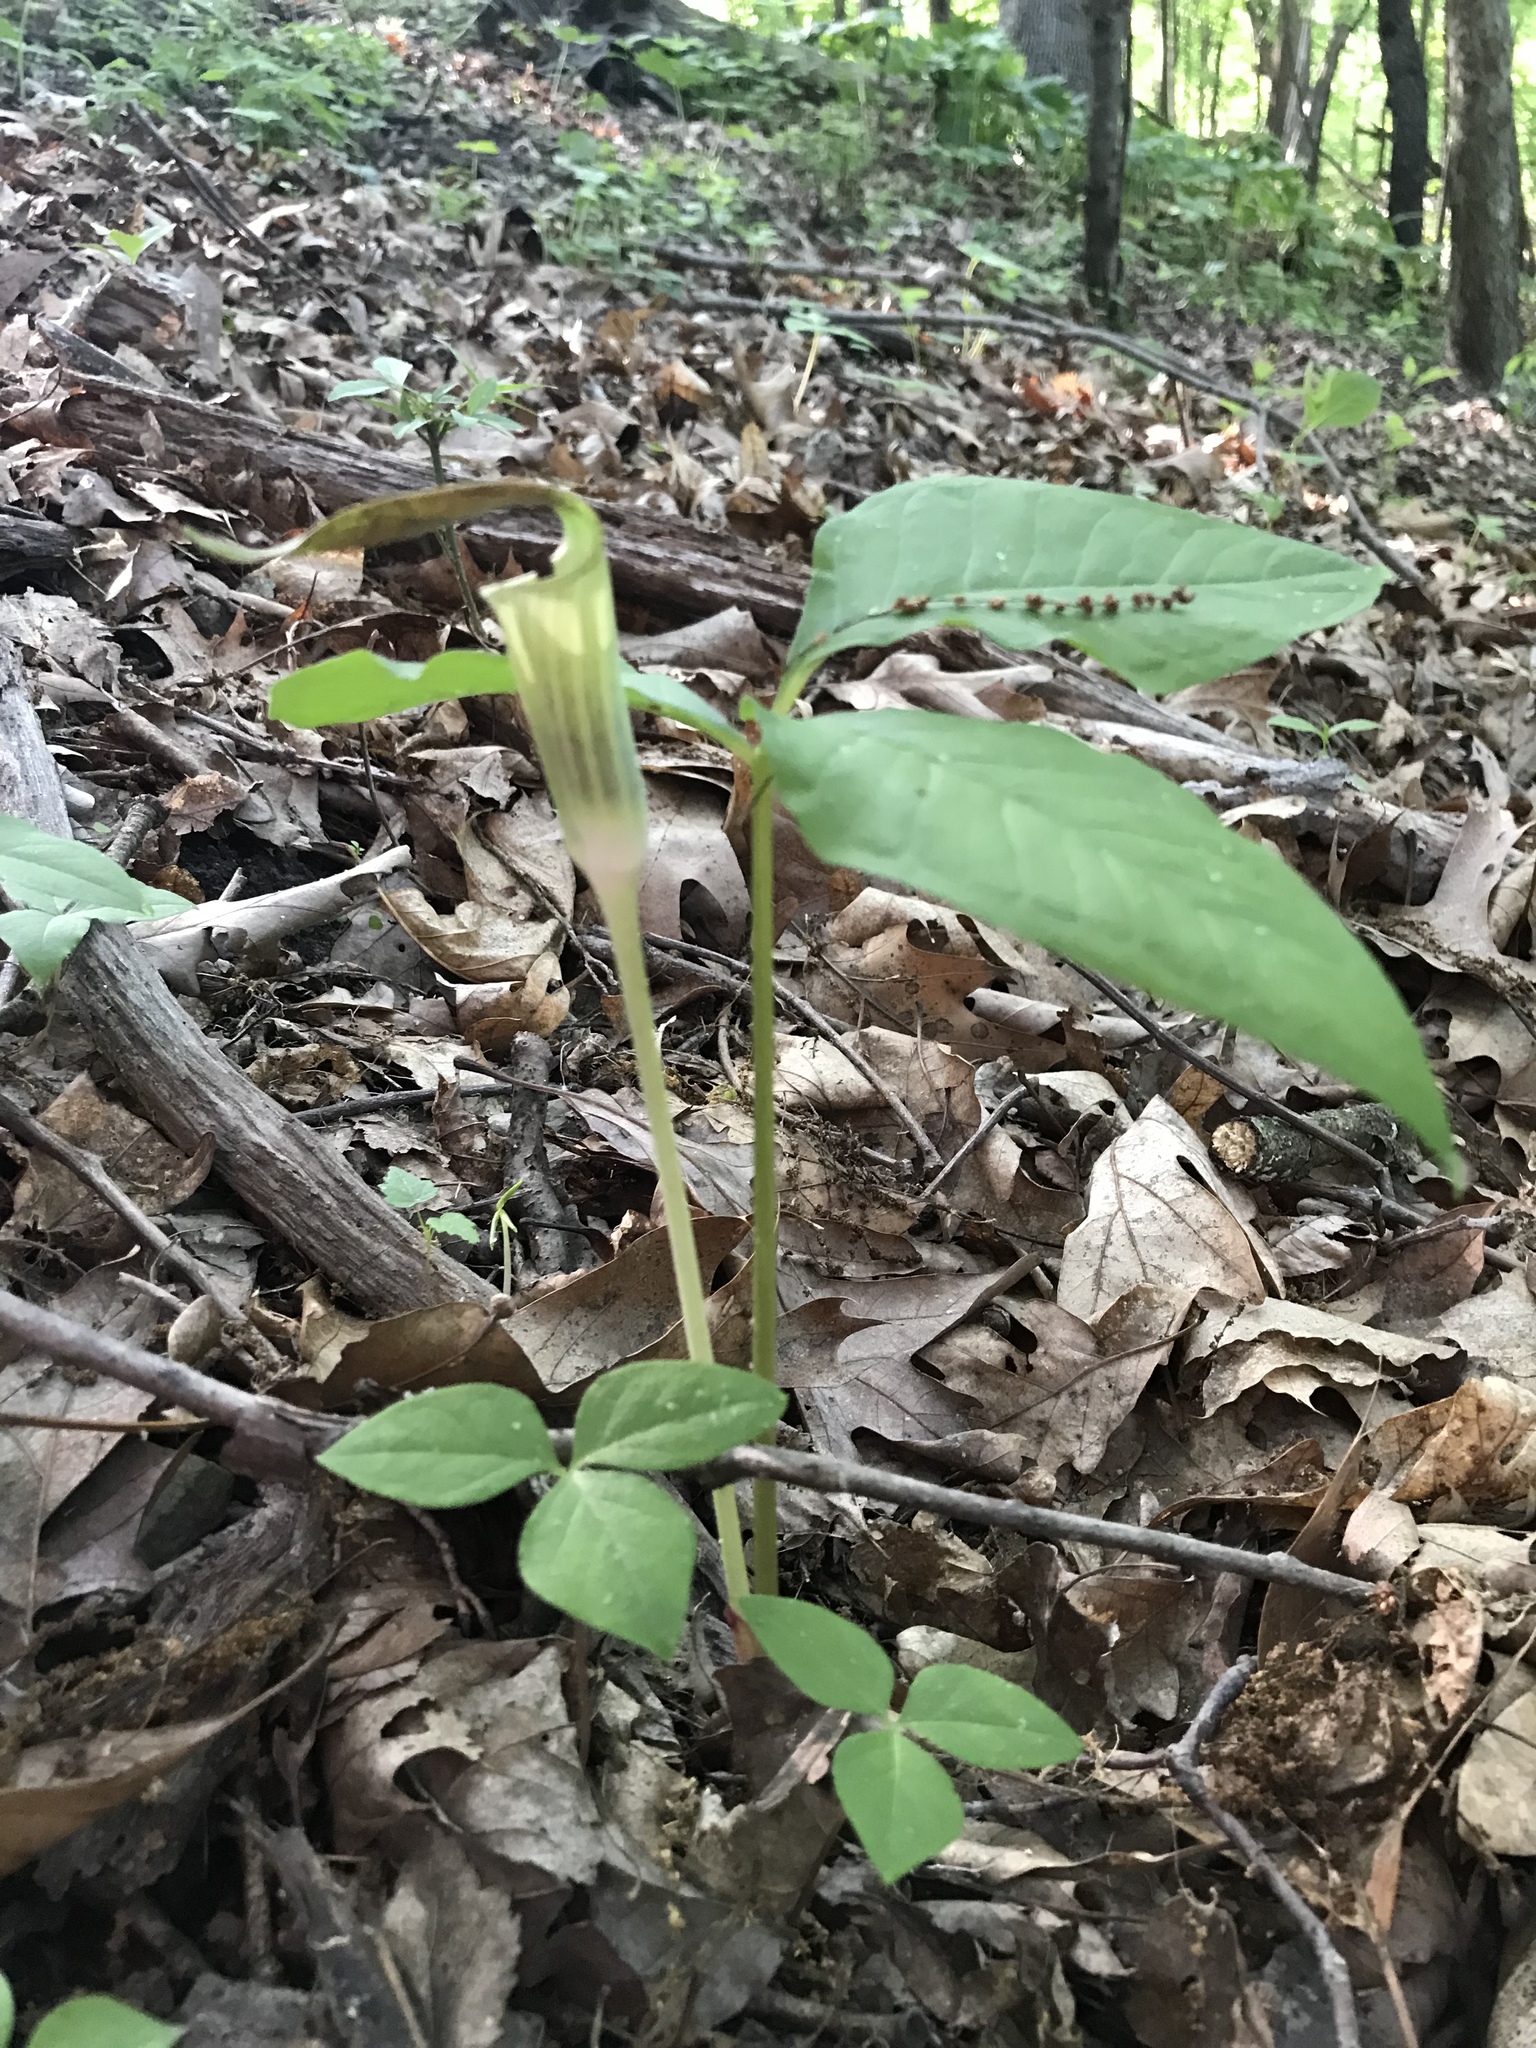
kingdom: Plantae
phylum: Tracheophyta
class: Liliopsida
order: Alismatales
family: Araceae
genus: Arisaema
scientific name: Arisaema triphyllum
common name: Jack-in-the-pulpit
